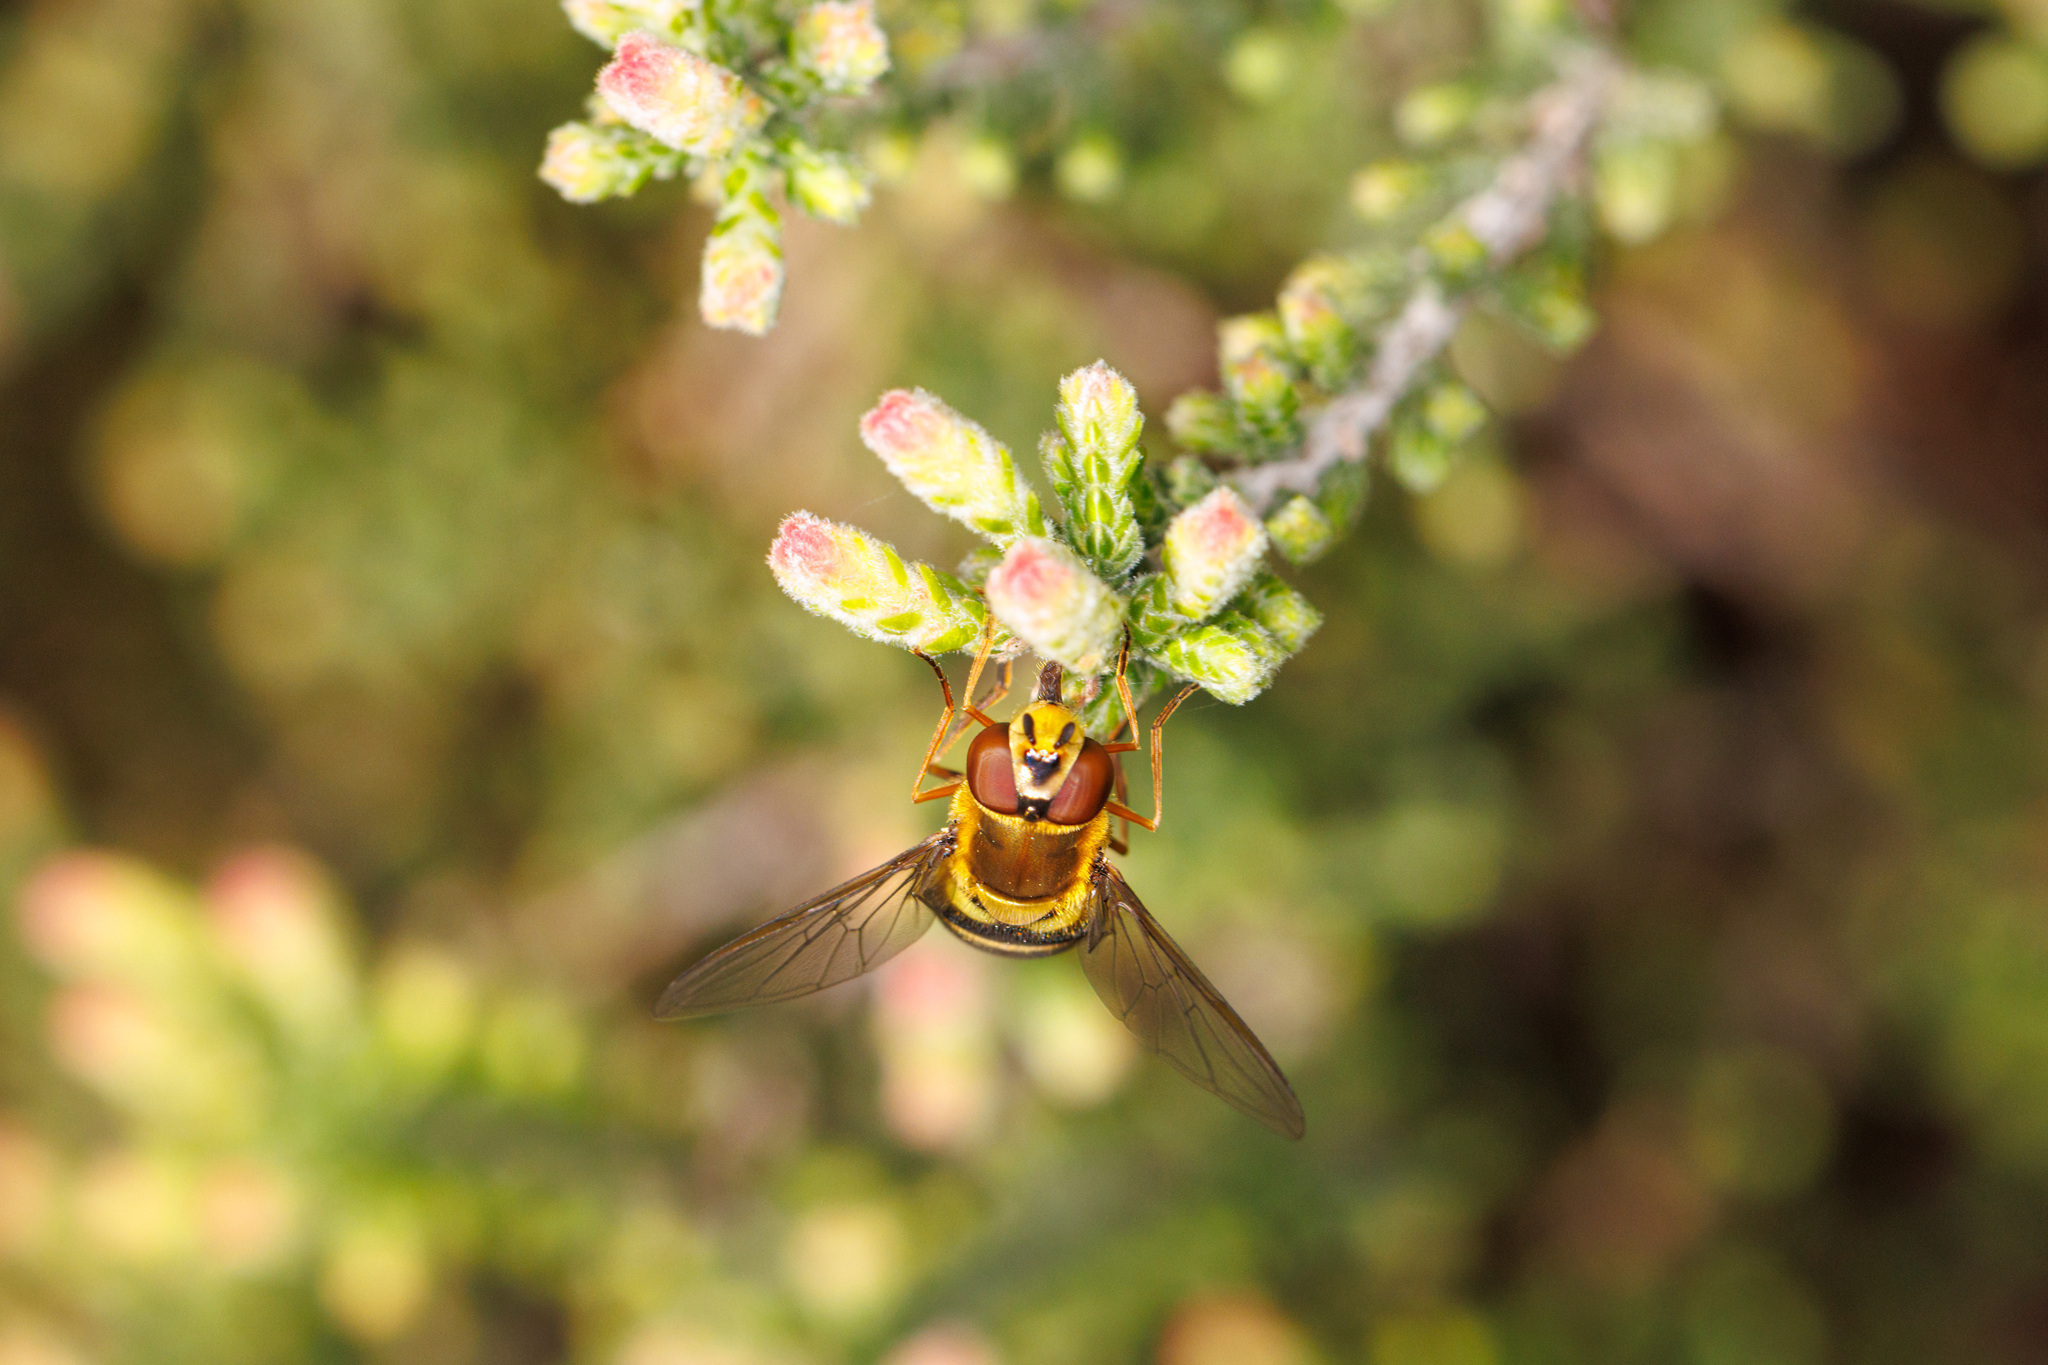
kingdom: Animalia
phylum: Arthropoda
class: Insecta
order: Diptera
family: Syrphidae
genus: Syrphus
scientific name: Syrphus ribesii
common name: Common flower fly
